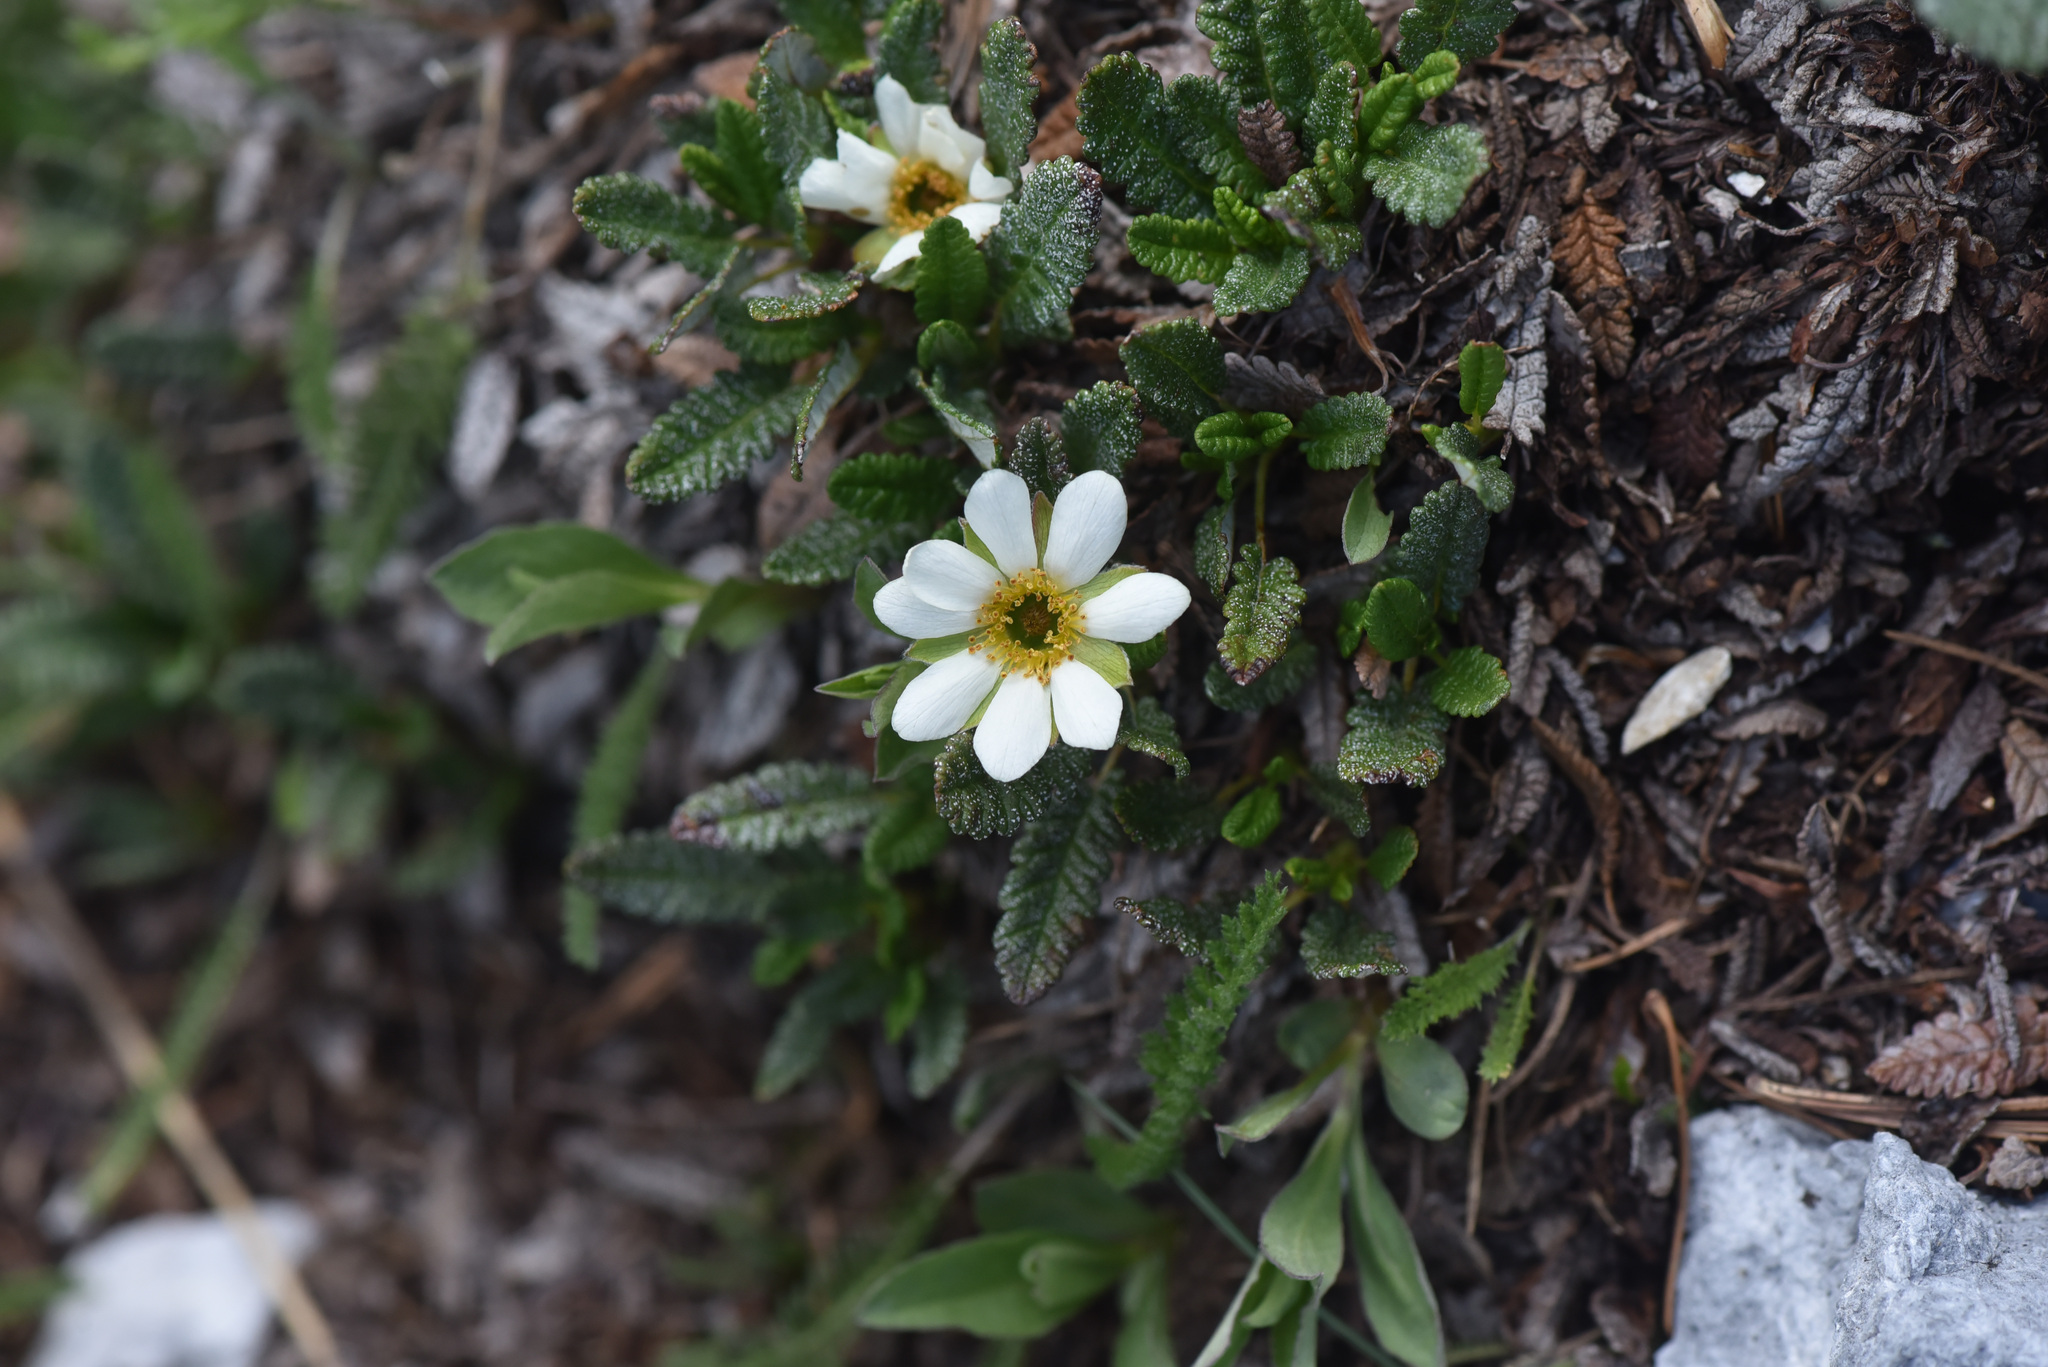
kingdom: Plantae
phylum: Tracheophyta
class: Magnoliopsida
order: Rosales
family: Rosaceae
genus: Dryas
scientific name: Dryas octopetala
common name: Eight-petal mountain-avens
